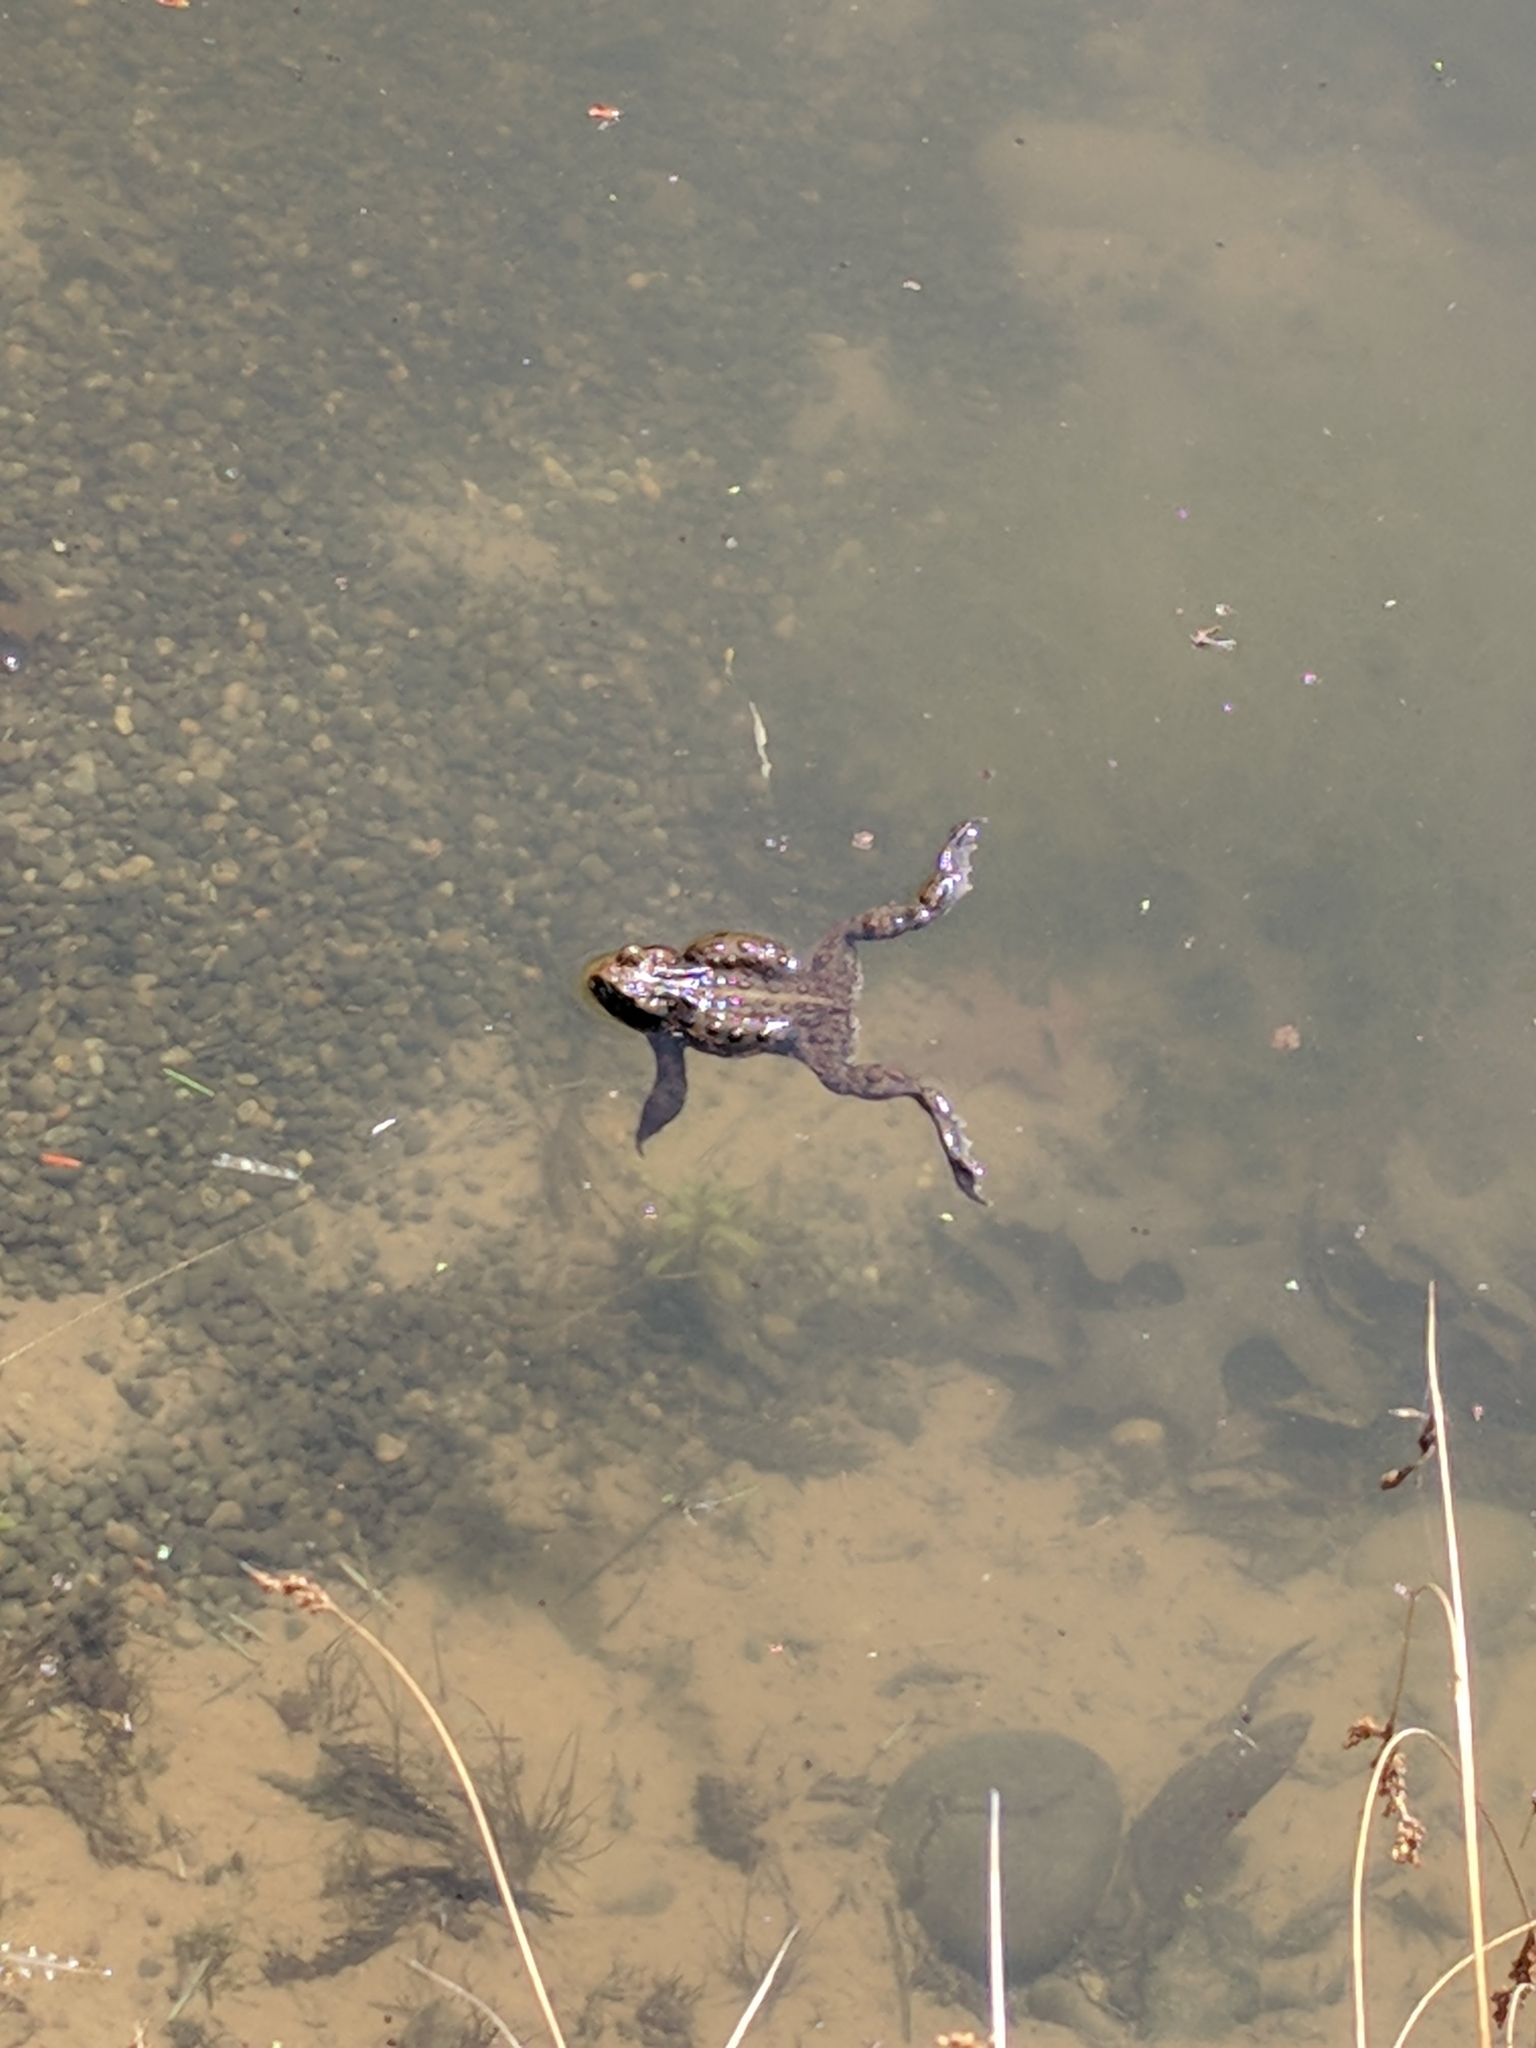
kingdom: Animalia
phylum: Chordata
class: Amphibia
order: Anura
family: Bufonidae
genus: Anaxyrus
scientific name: Anaxyrus boreas
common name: Western toad
